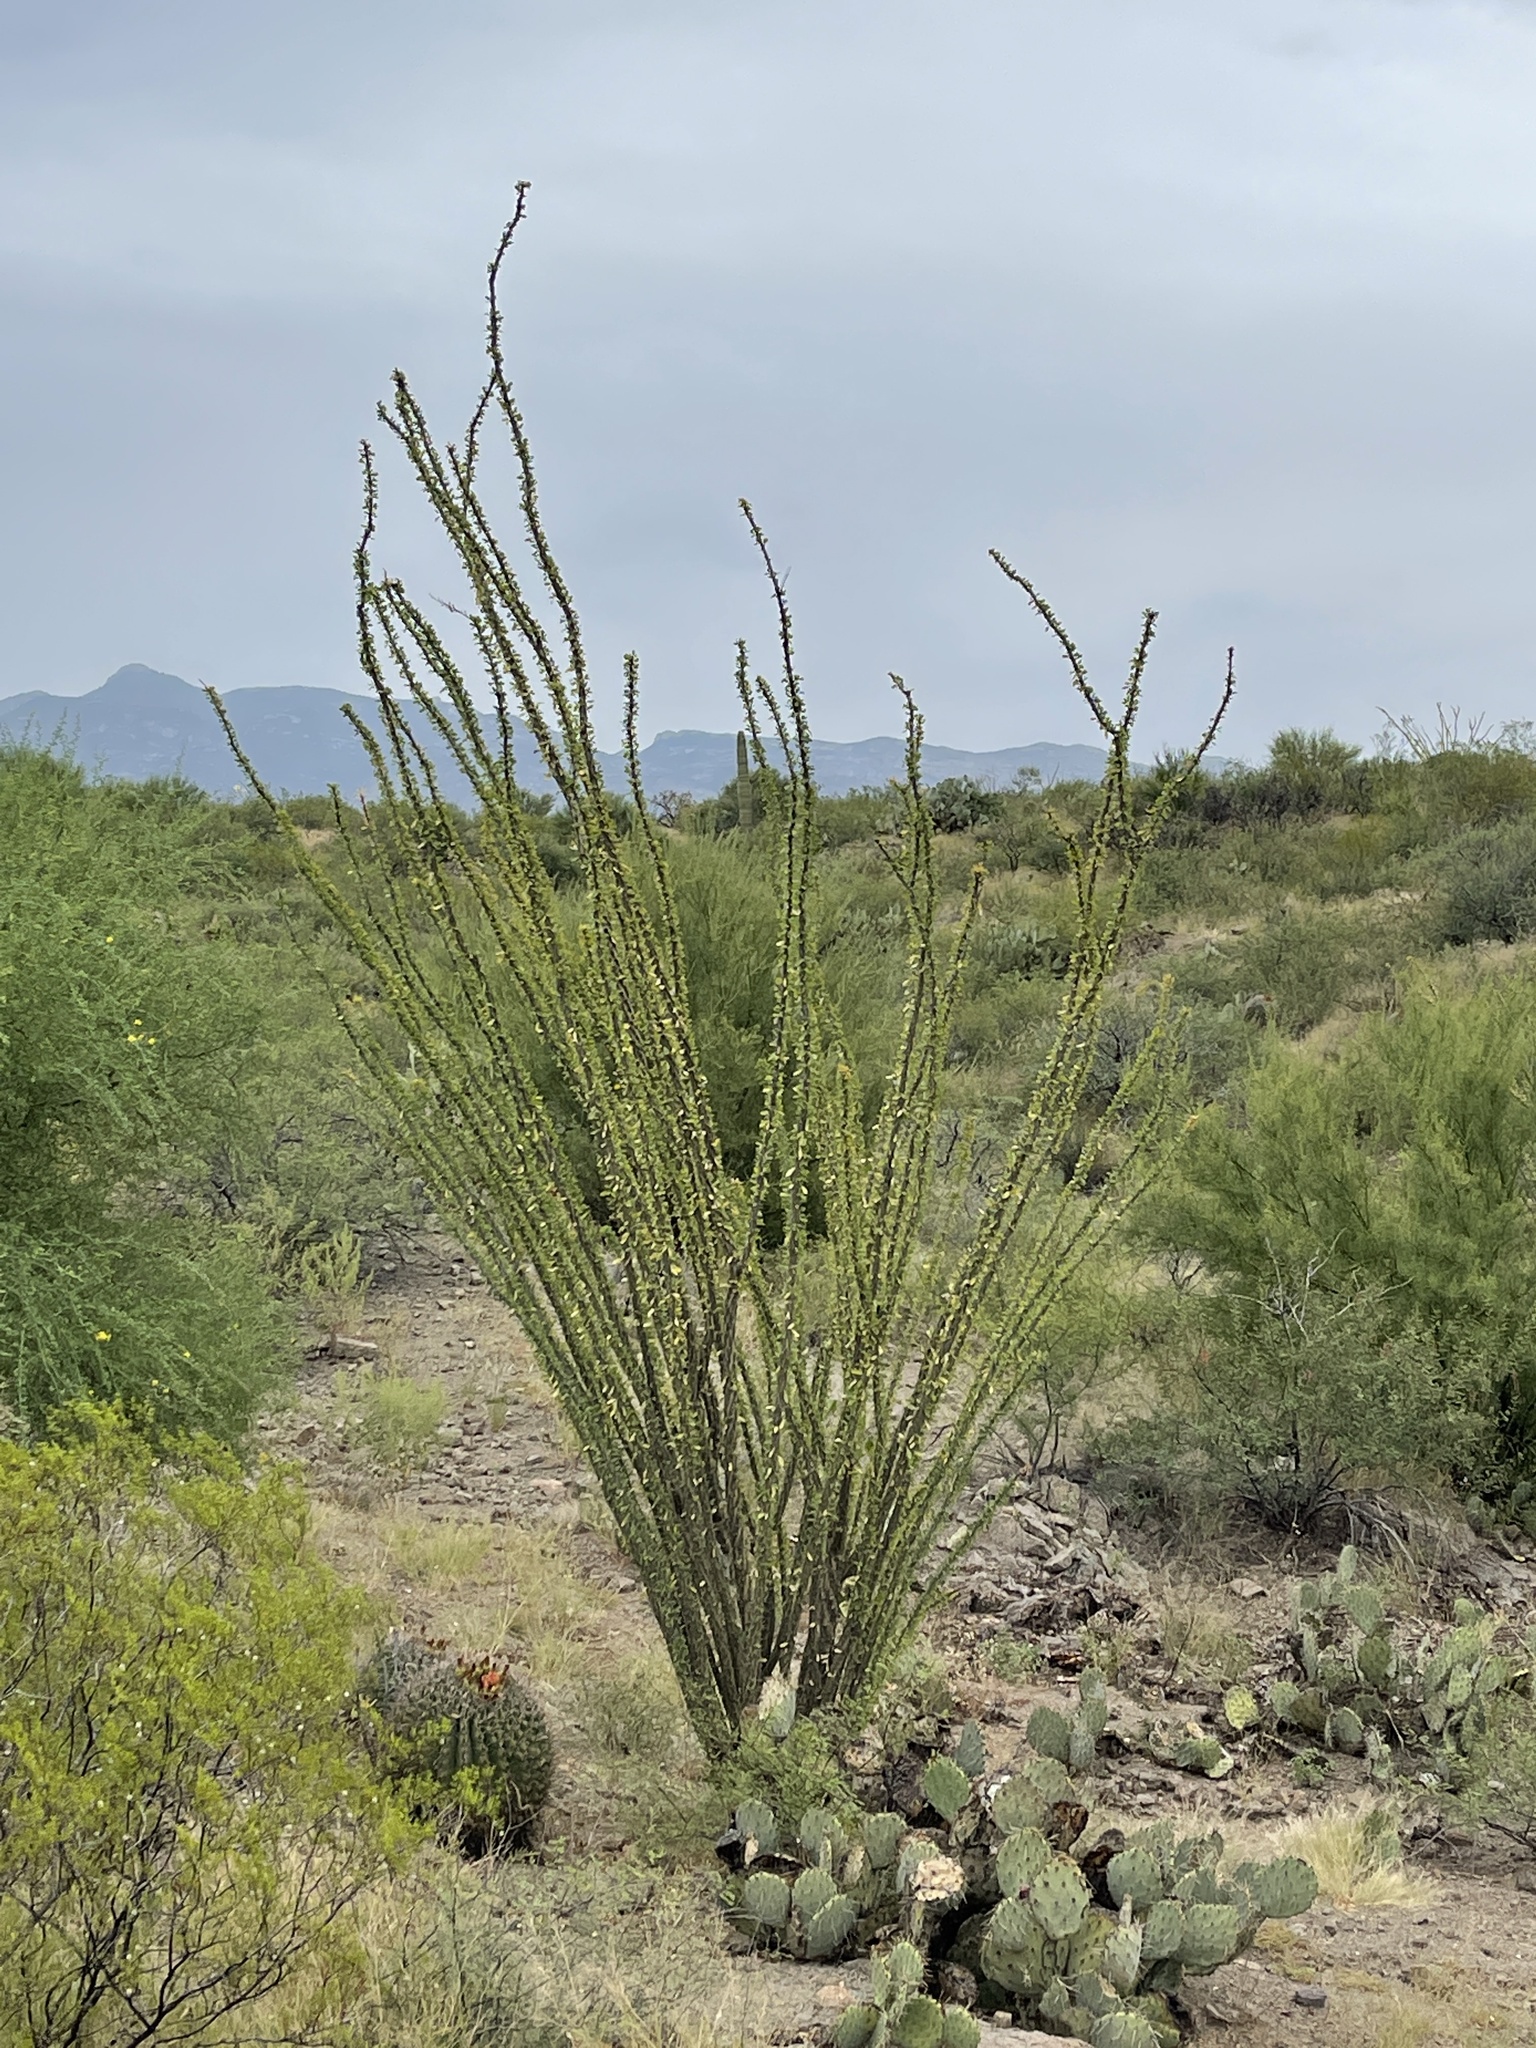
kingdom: Plantae
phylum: Tracheophyta
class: Magnoliopsida
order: Ericales
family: Fouquieriaceae
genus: Fouquieria
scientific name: Fouquieria splendens
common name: Vine-cactus
